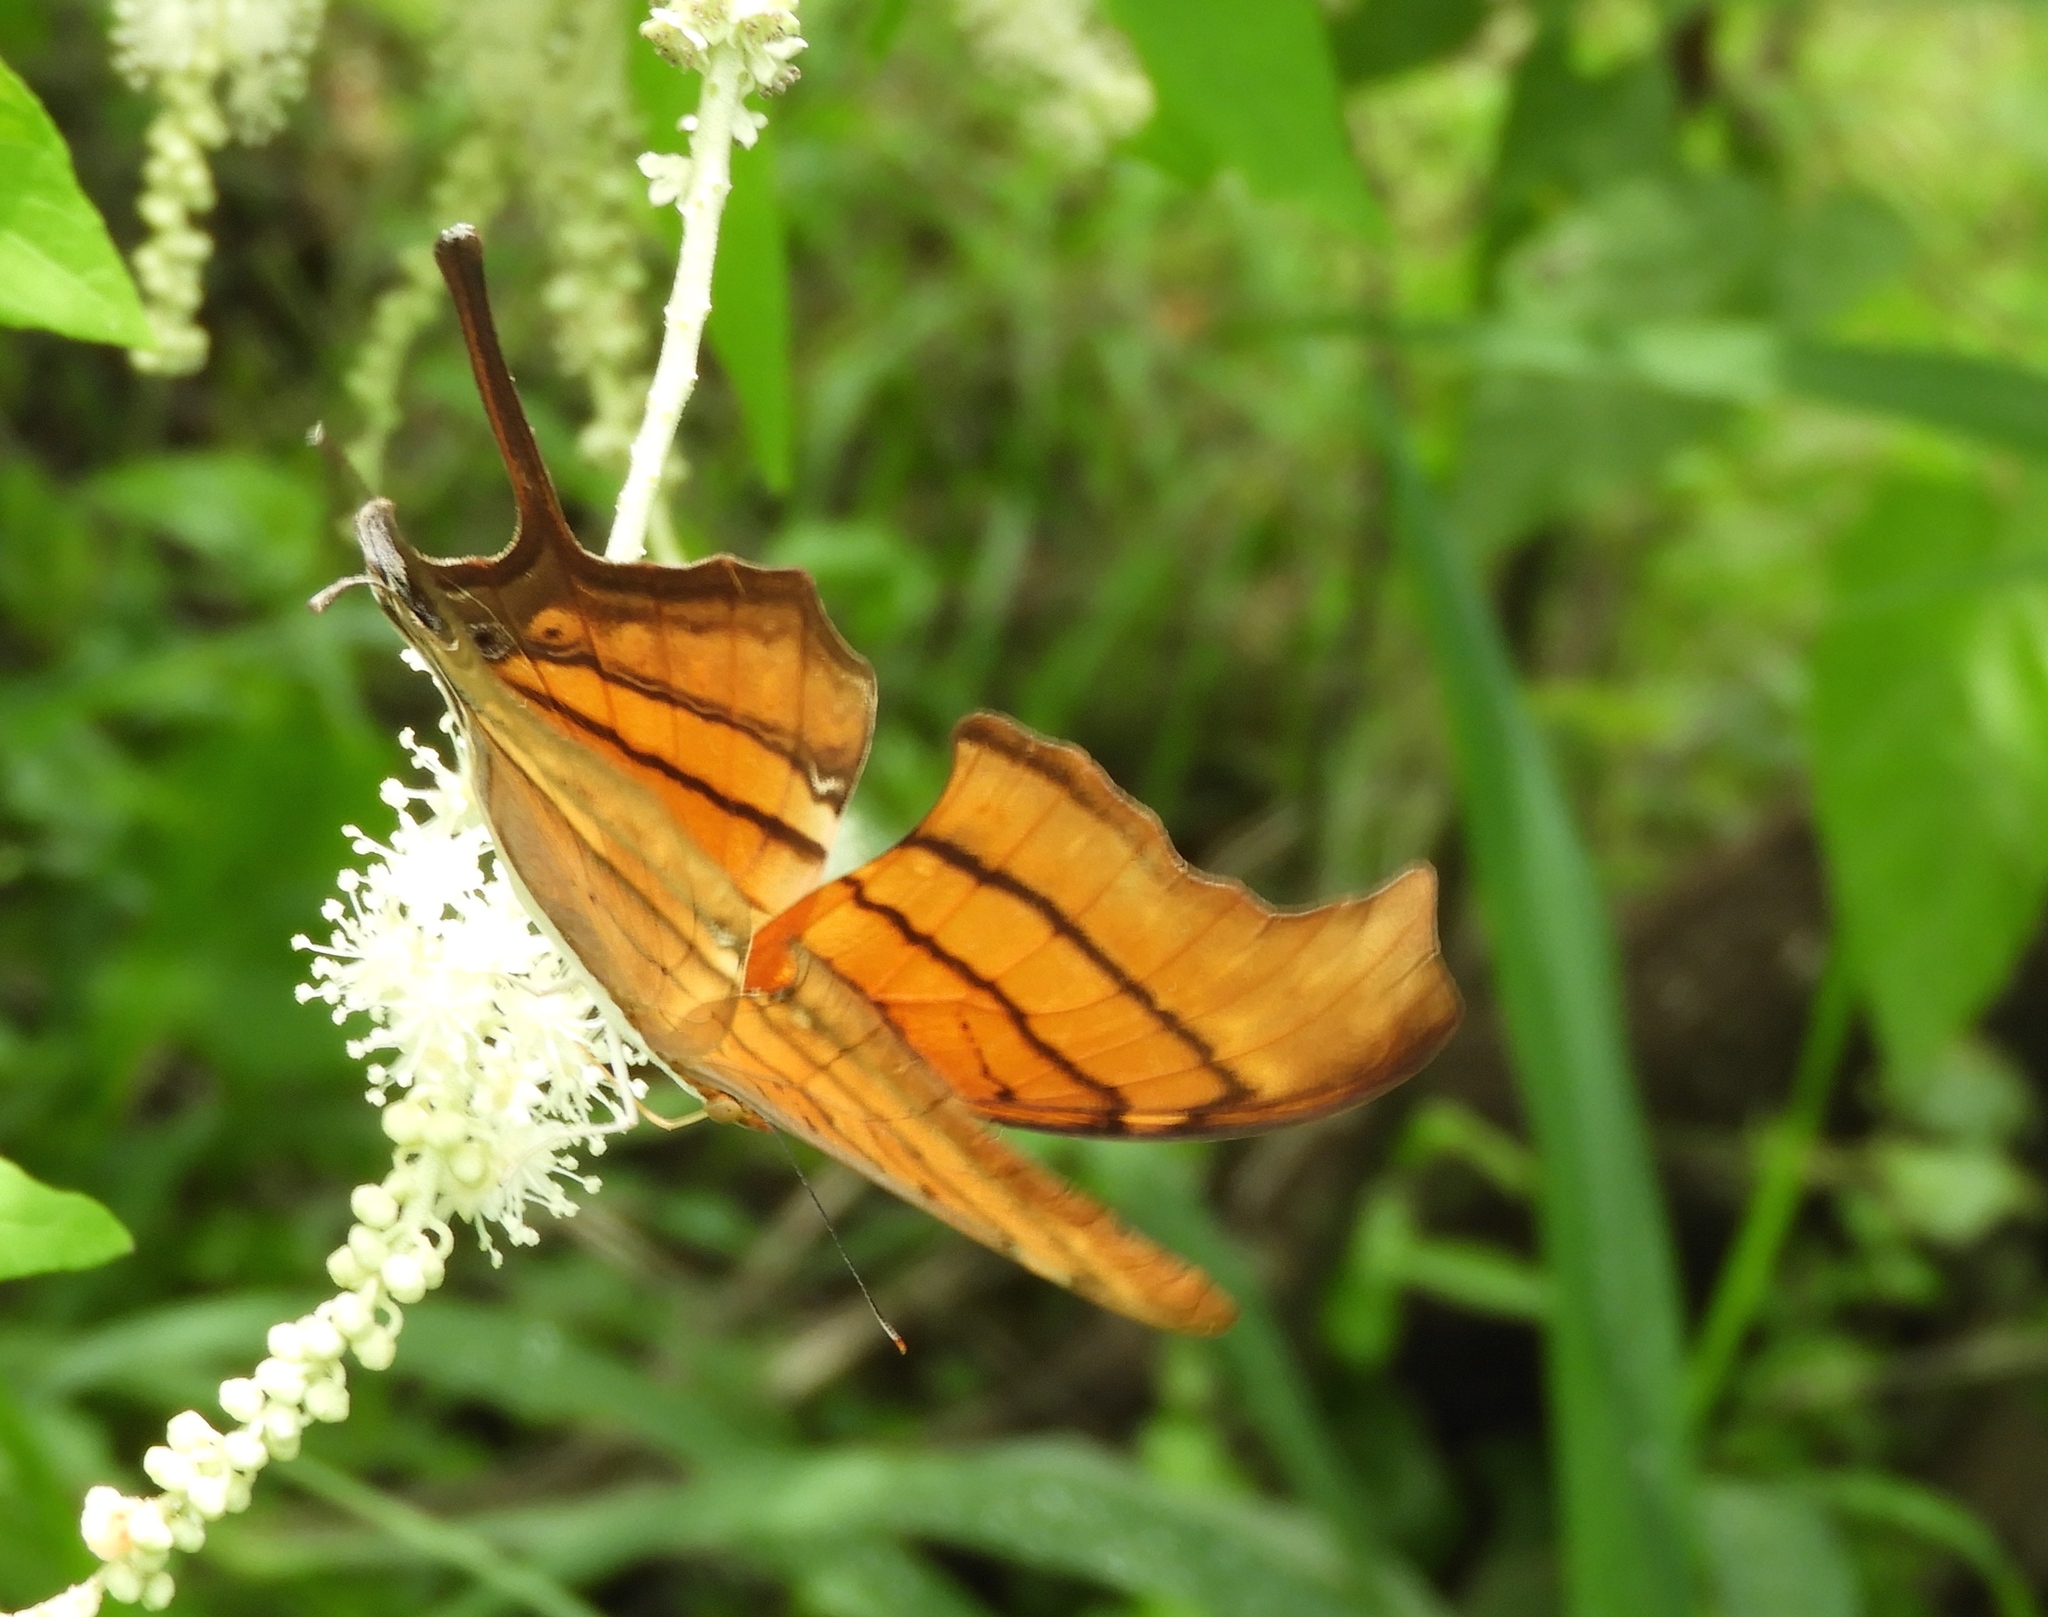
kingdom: Animalia
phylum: Arthropoda
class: Insecta
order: Lepidoptera
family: Nymphalidae
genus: Marpesia
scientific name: Marpesia petreus
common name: Red dagger wing
